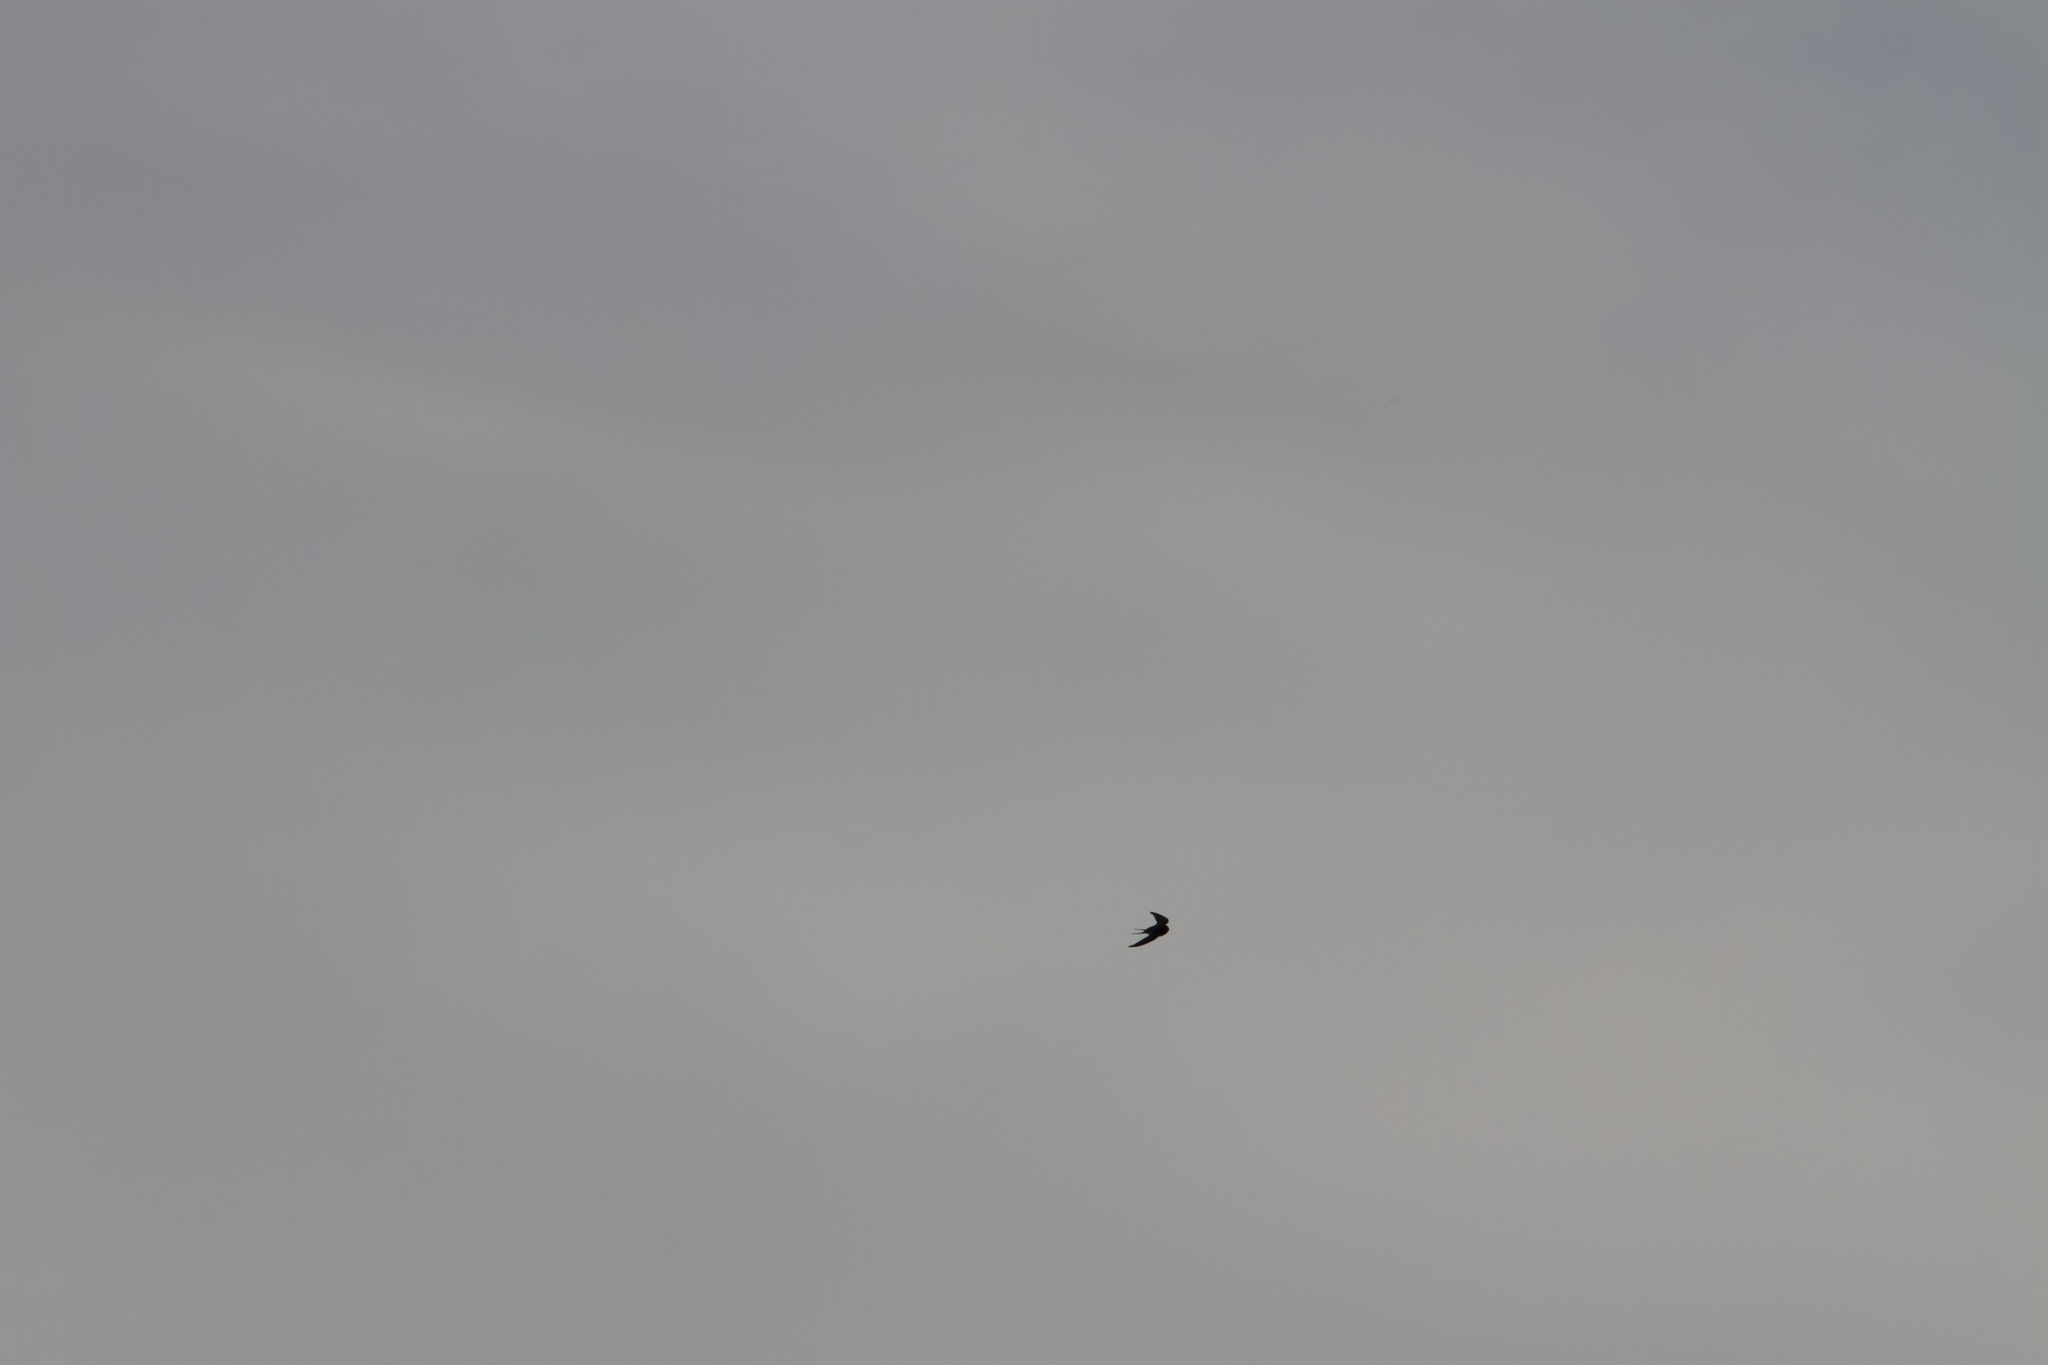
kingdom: Animalia
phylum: Chordata
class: Aves
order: Passeriformes
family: Hirundinidae
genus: Hirundo
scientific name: Hirundo rustica
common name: Barn swallow
